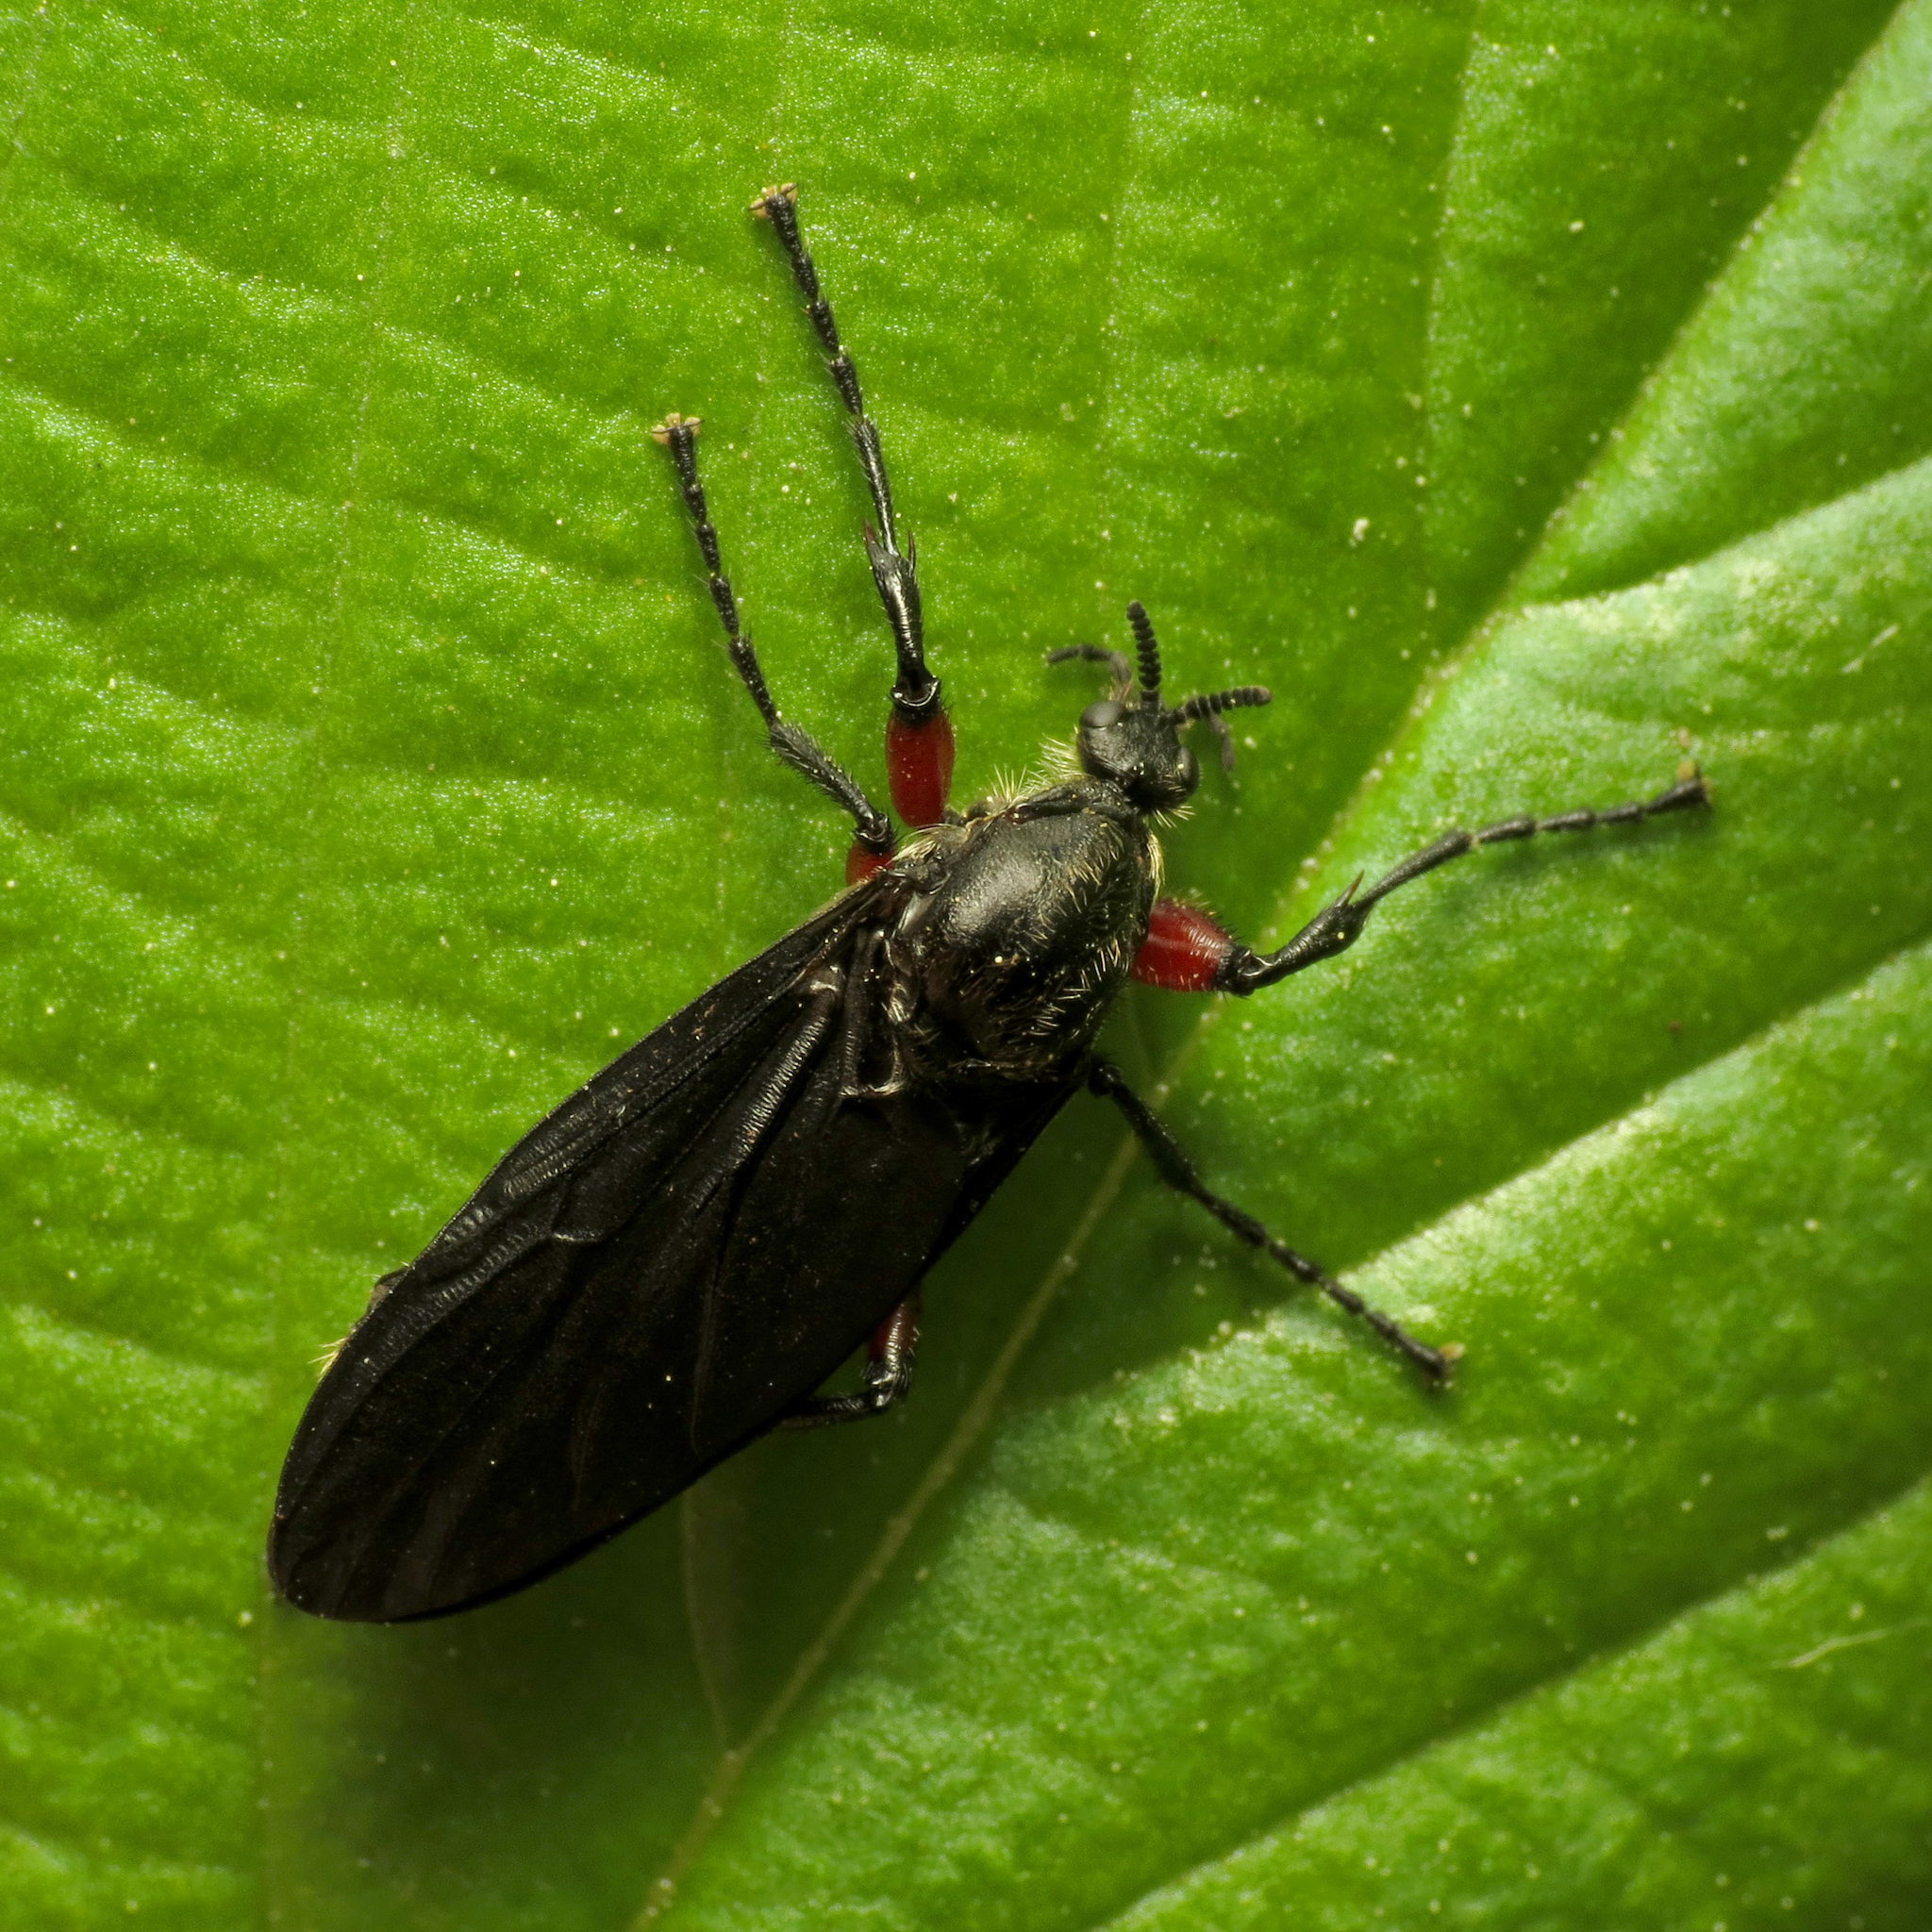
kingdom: Animalia
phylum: Arthropoda
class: Insecta
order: Diptera
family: Bibionidae
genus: Bibio
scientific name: Bibio femoratus
